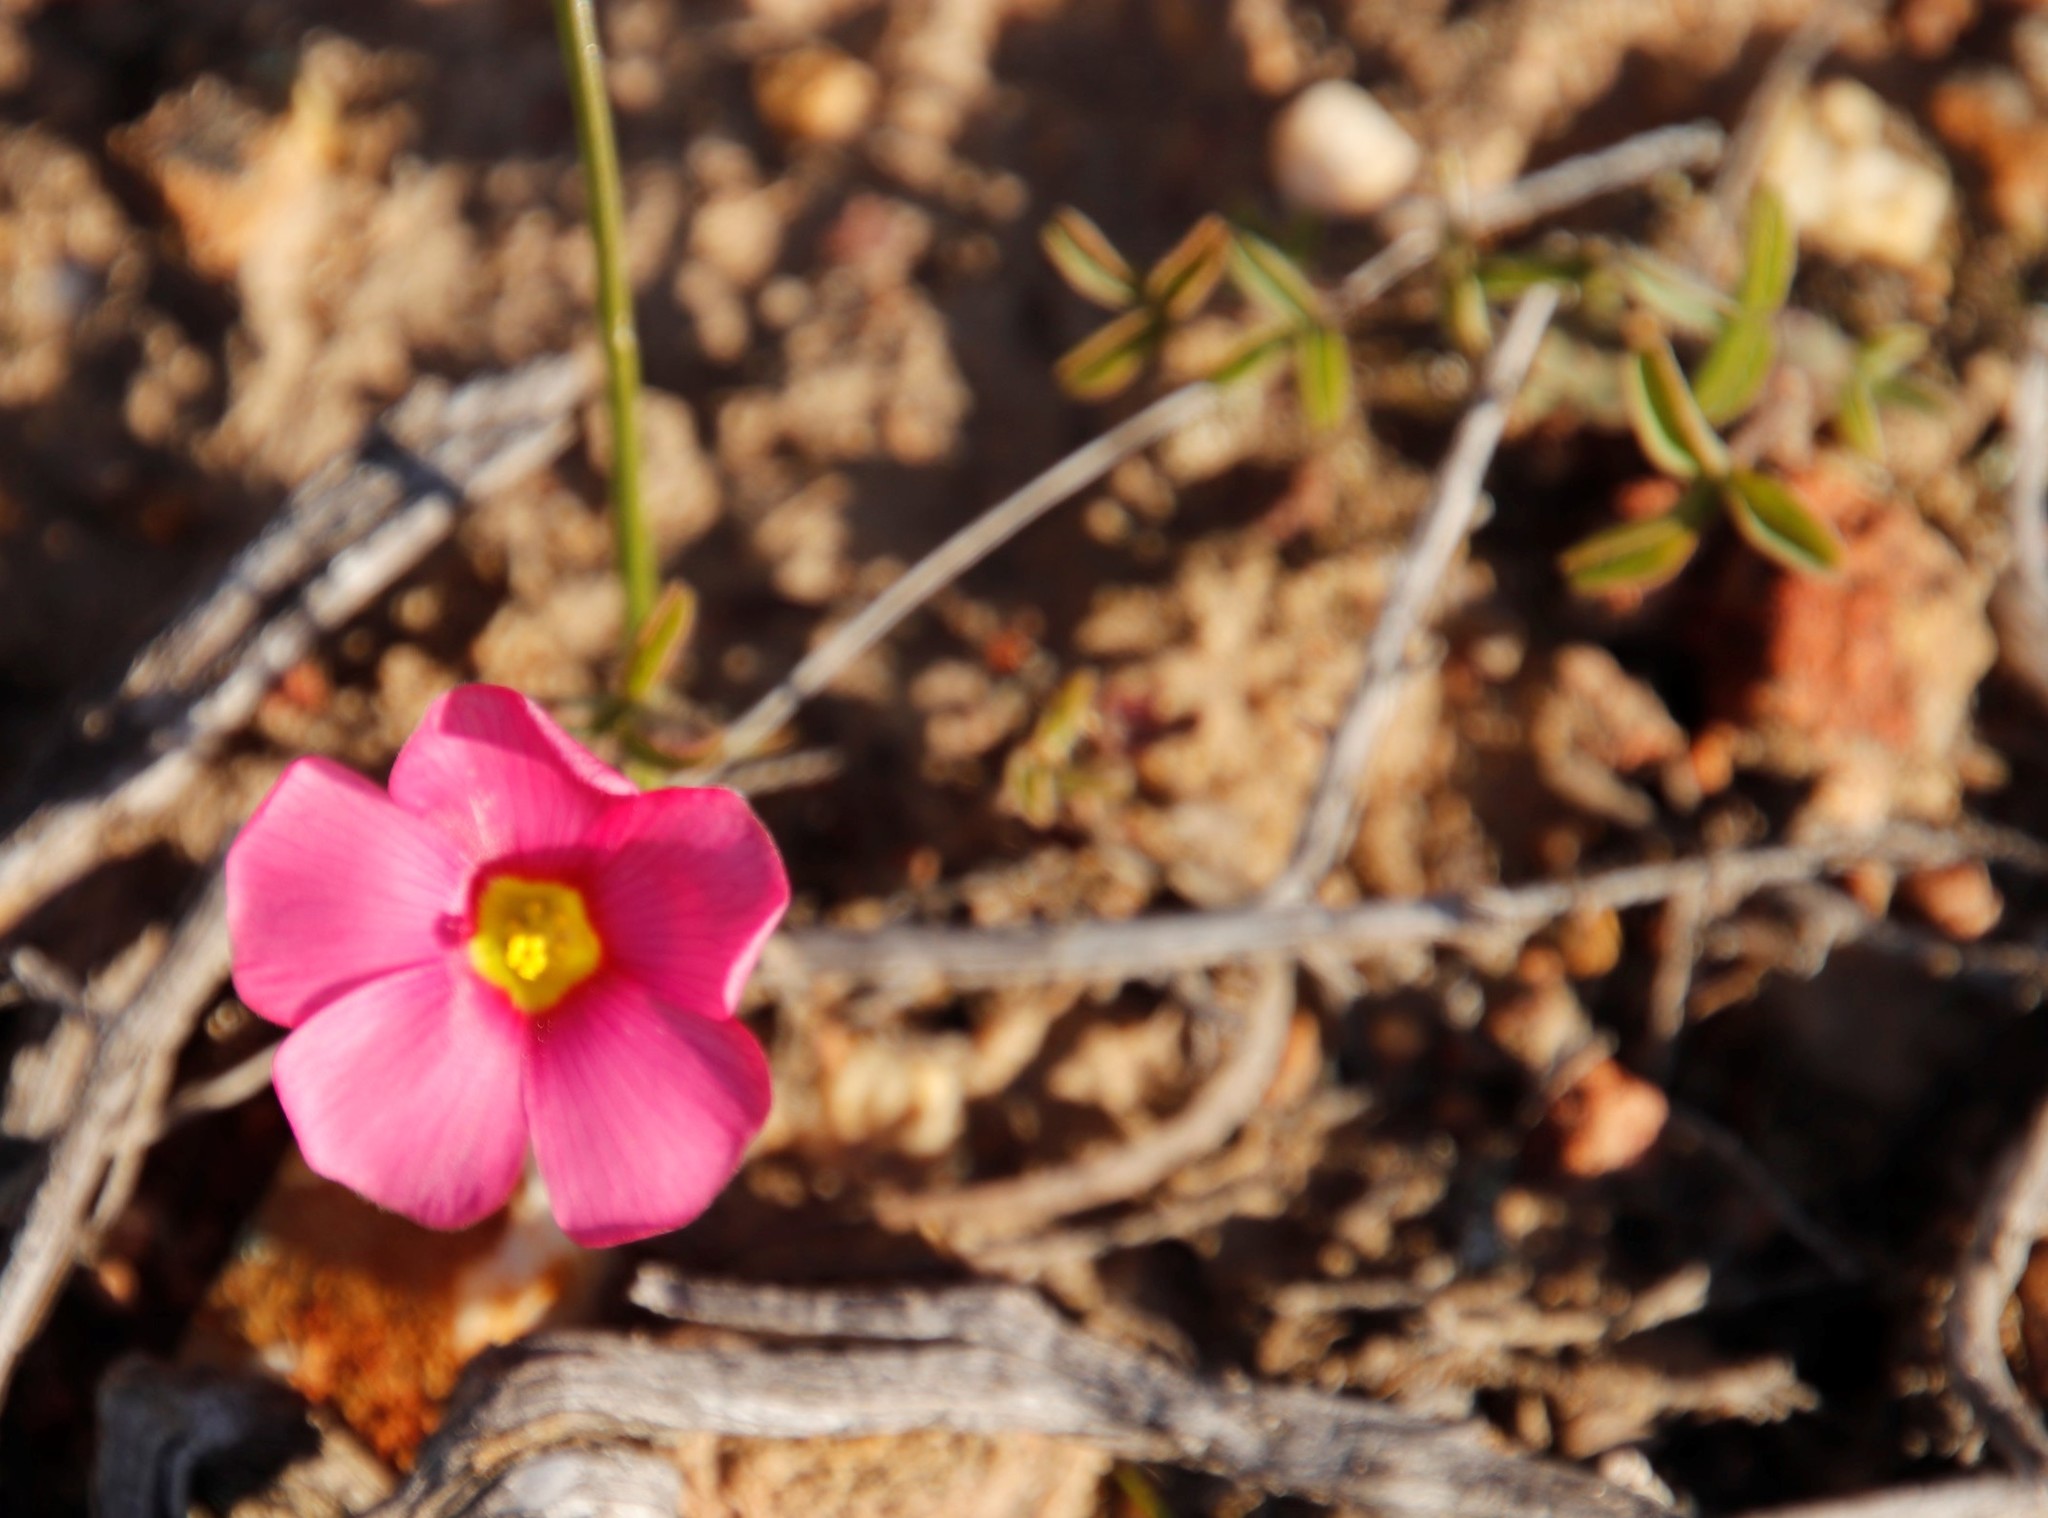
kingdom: Plantae
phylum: Tracheophyta
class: Magnoliopsida
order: Oxalidales
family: Oxalidaceae
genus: Oxalis
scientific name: Oxalis obtusa
